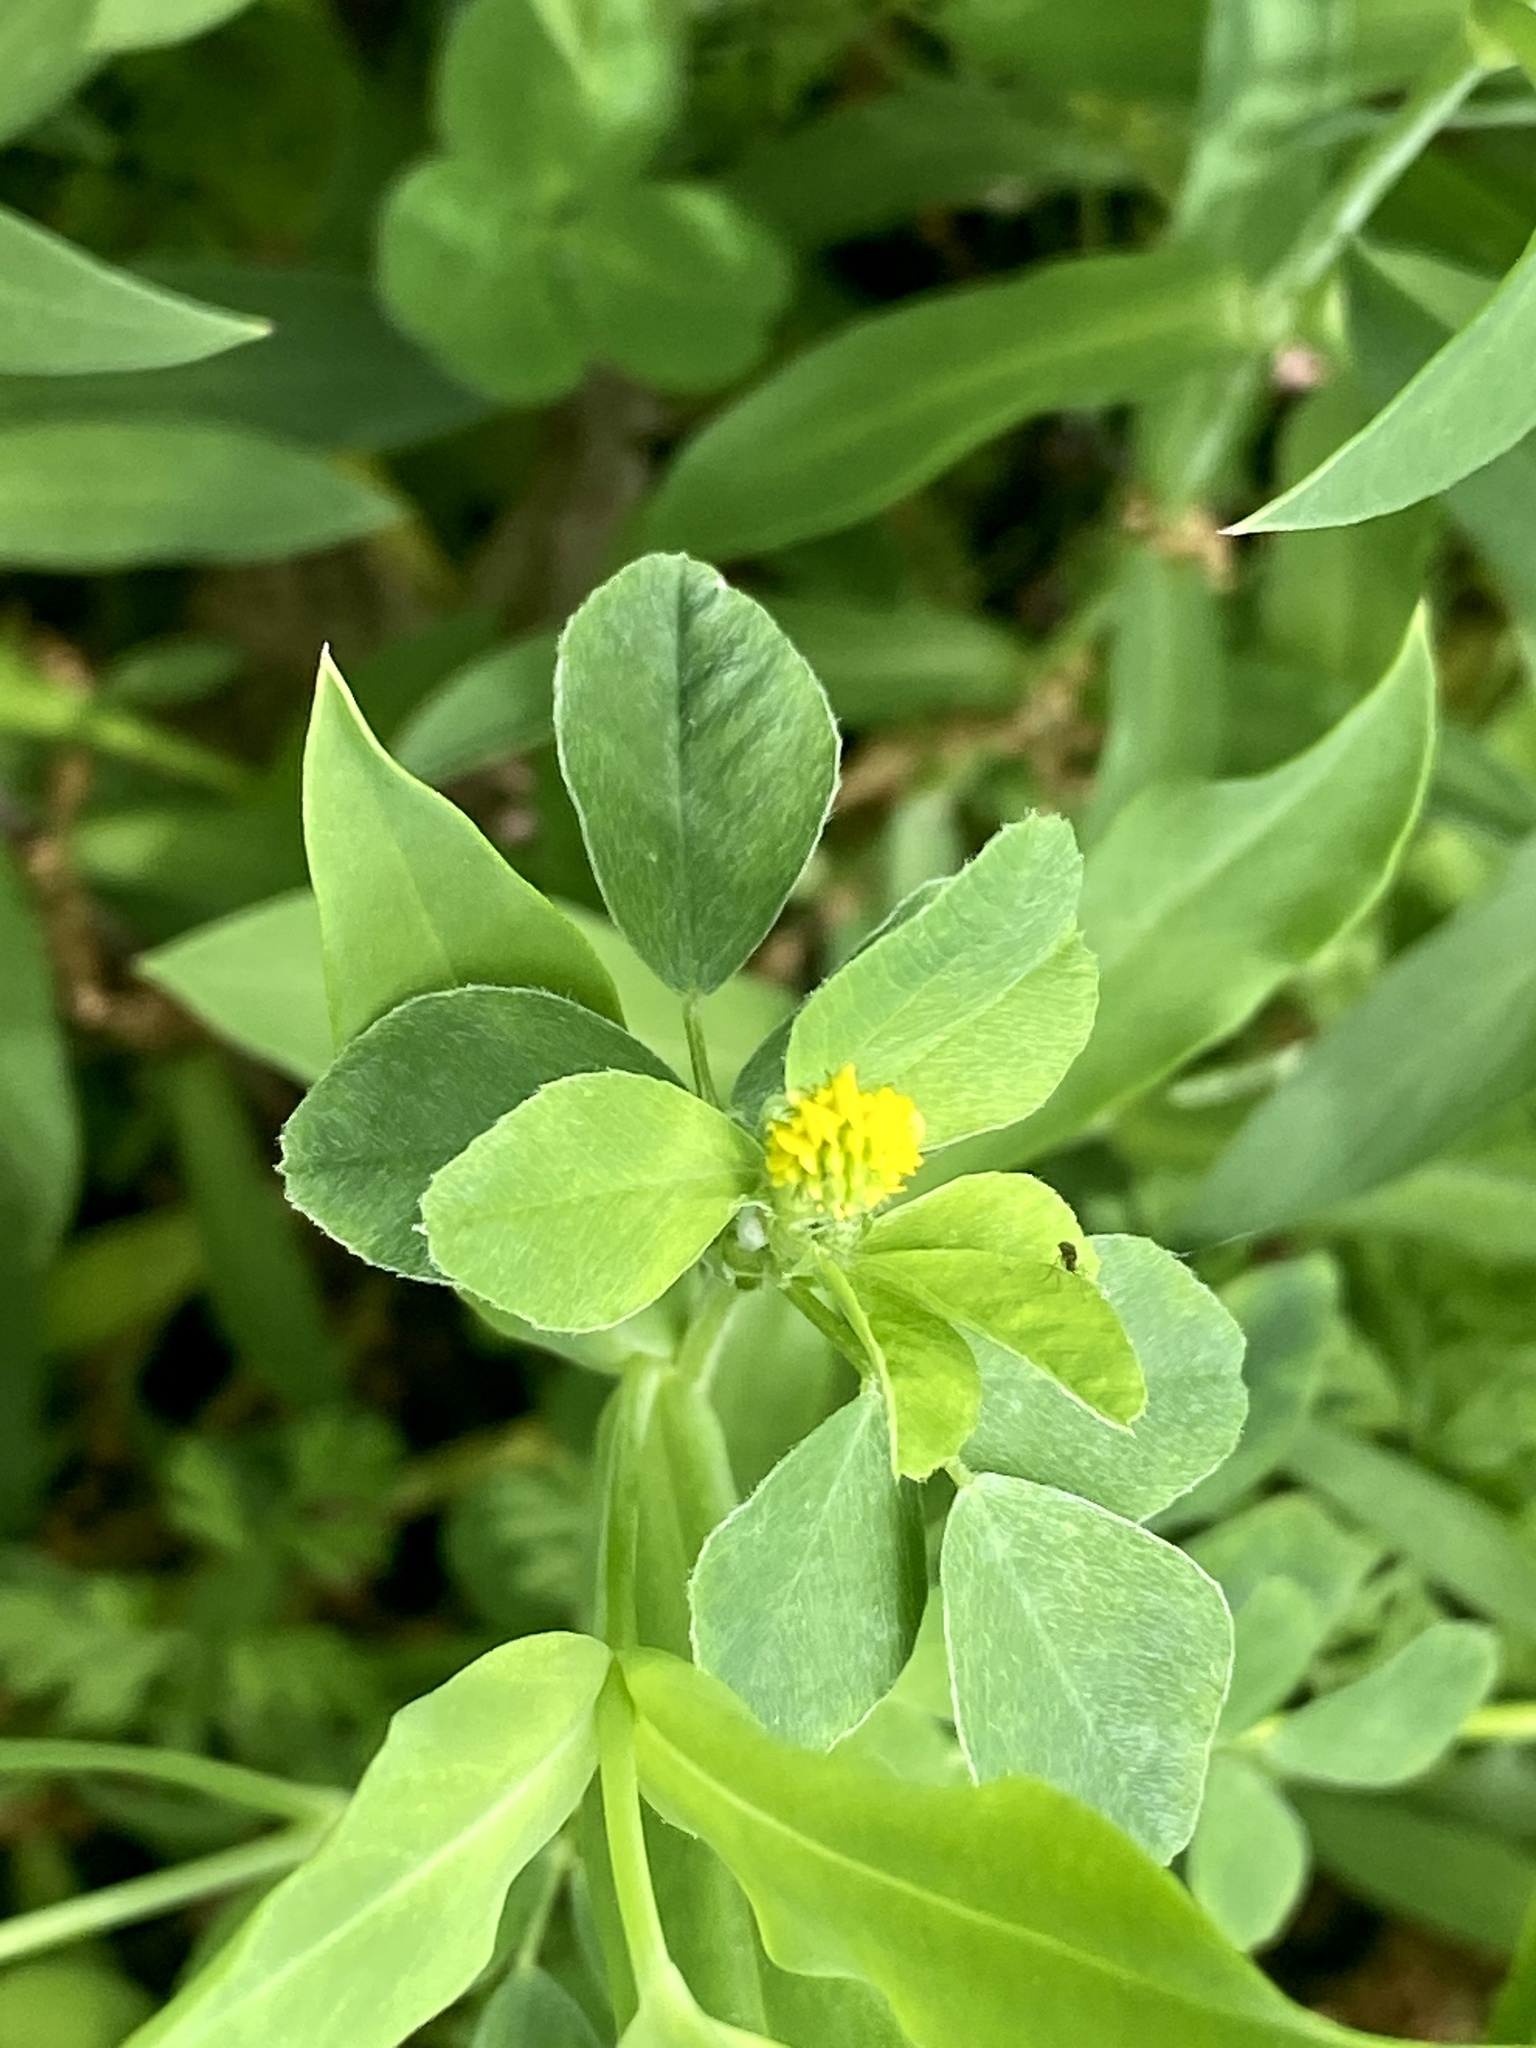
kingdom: Plantae
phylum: Tracheophyta
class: Magnoliopsida
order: Fabales
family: Fabaceae
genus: Medicago
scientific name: Medicago lupulina
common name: Black medick
